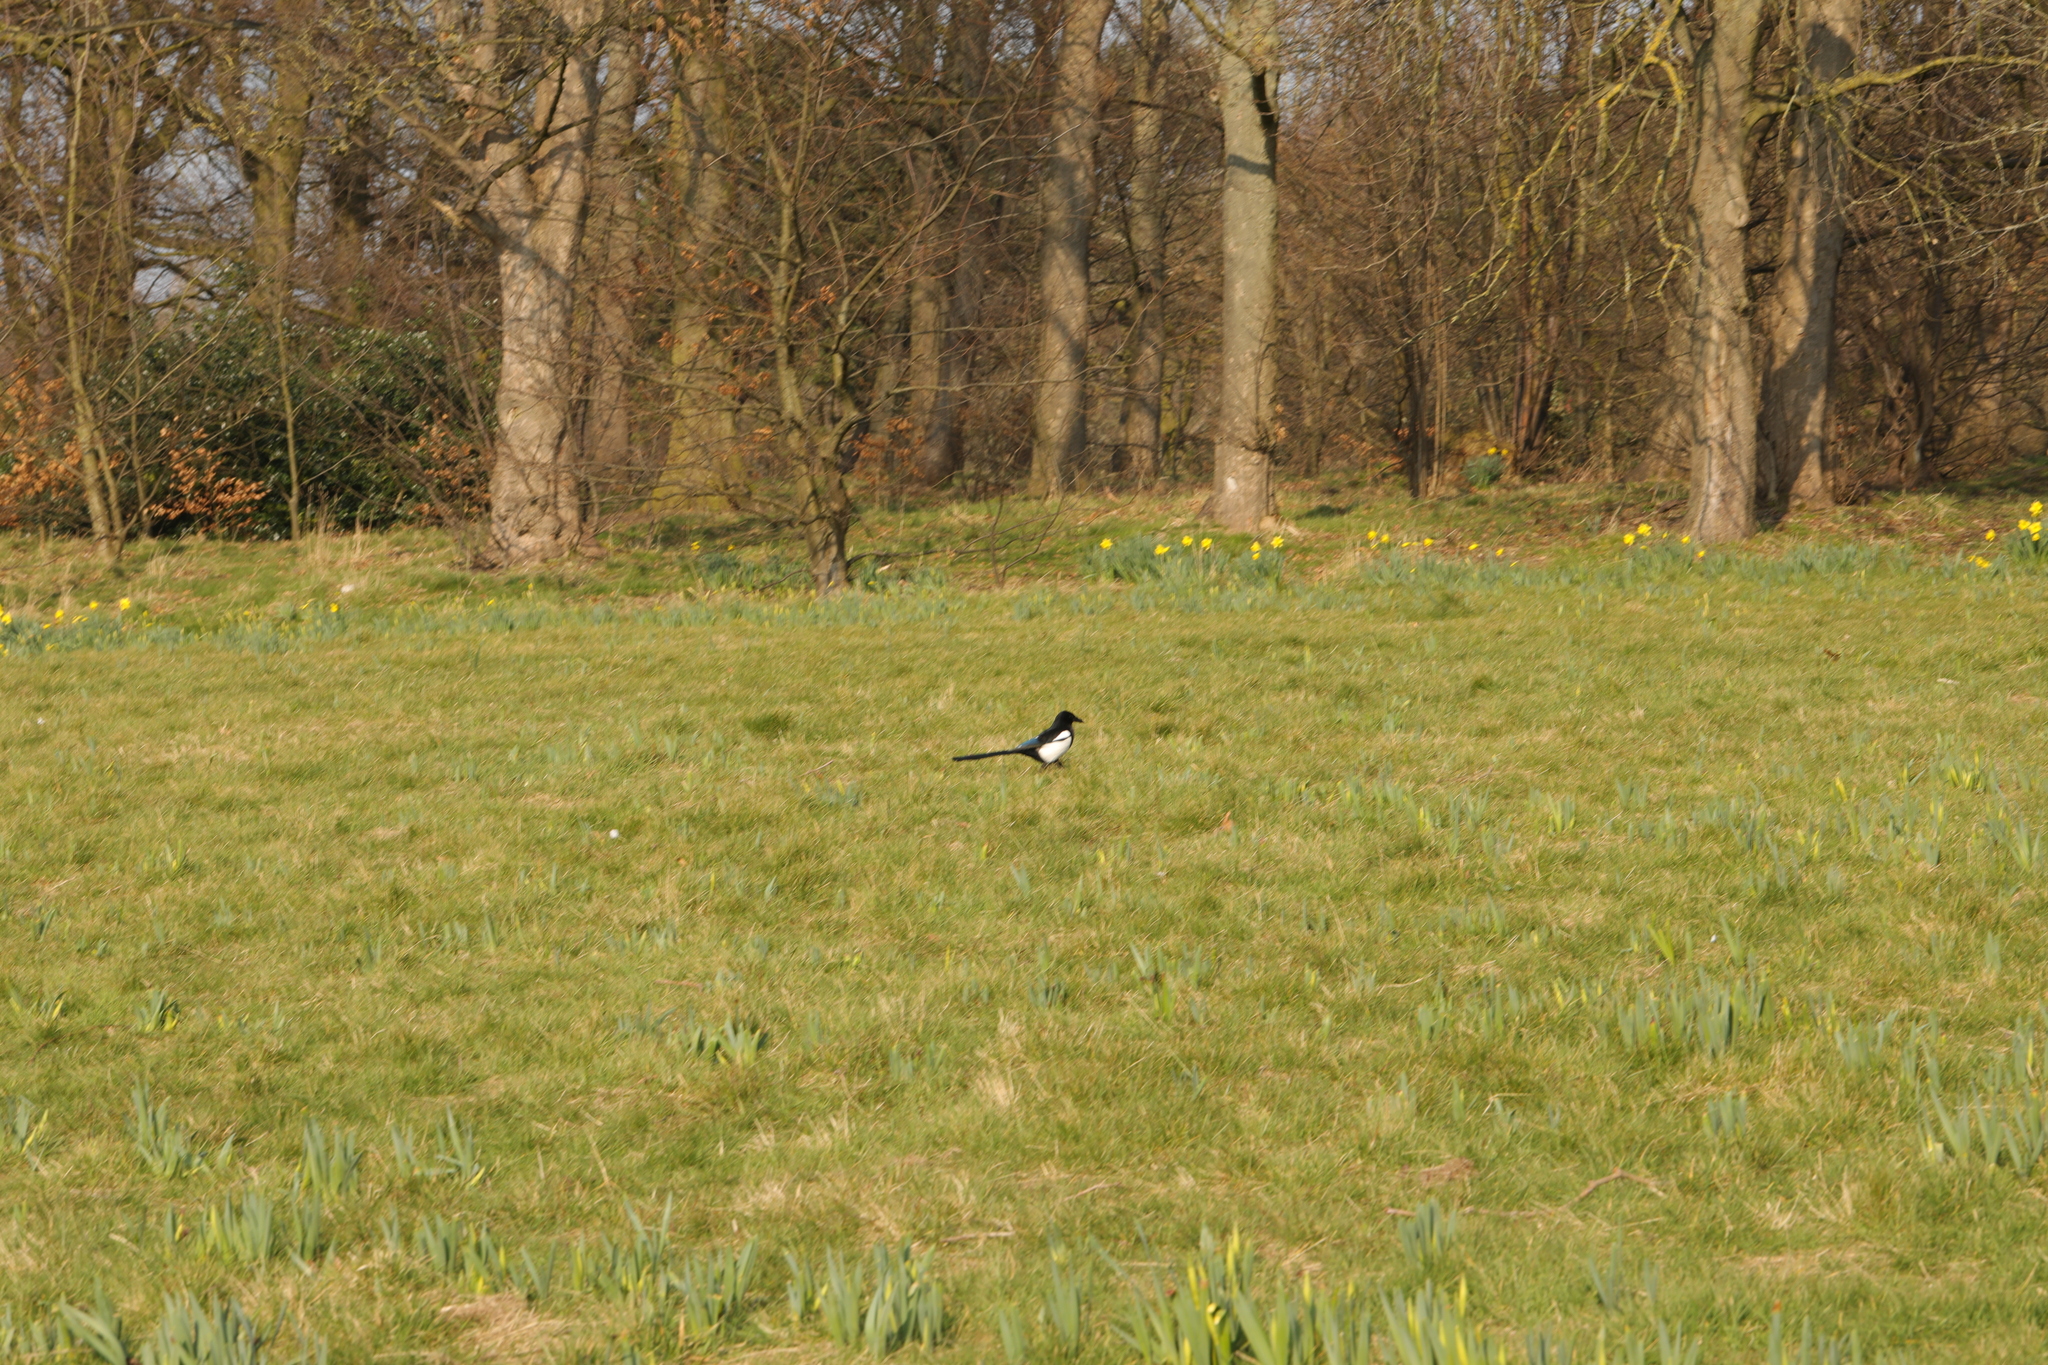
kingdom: Animalia
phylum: Chordata
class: Aves
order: Passeriformes
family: Corvidae
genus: Pica
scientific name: Pica pica
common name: Eurasian magpie
